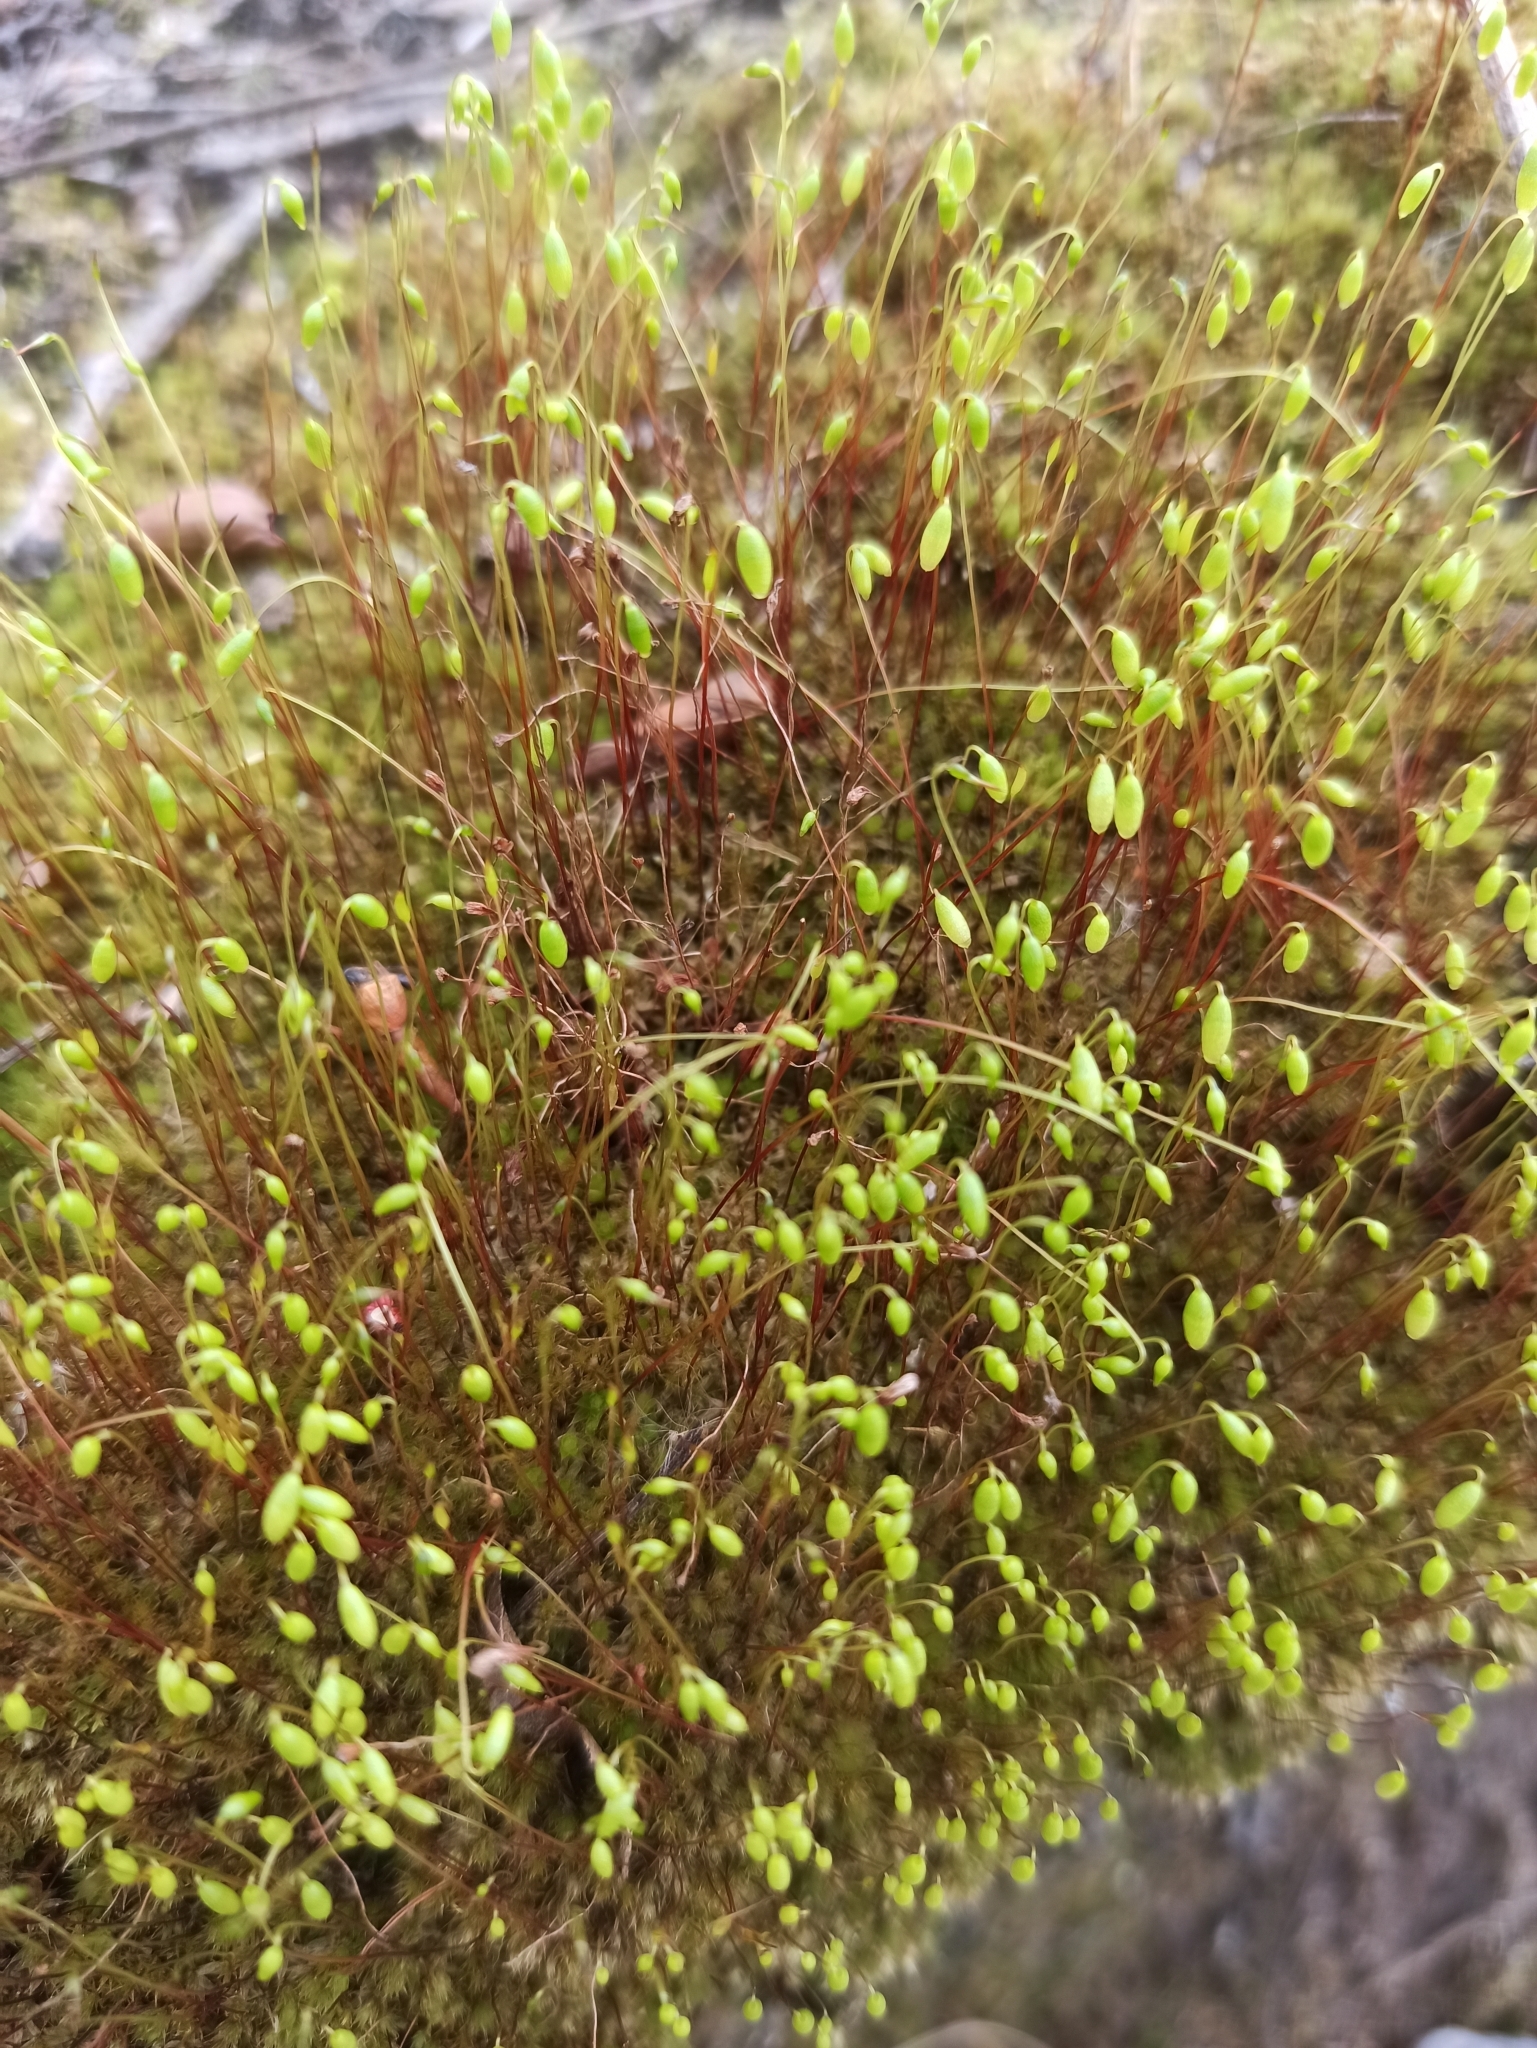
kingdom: Plantae
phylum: Bryophyta
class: Bryopsida
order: Bryales
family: Bryaceae
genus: Gemmabryum
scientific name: Gemmabryum caespiticium
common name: Handbell moss
